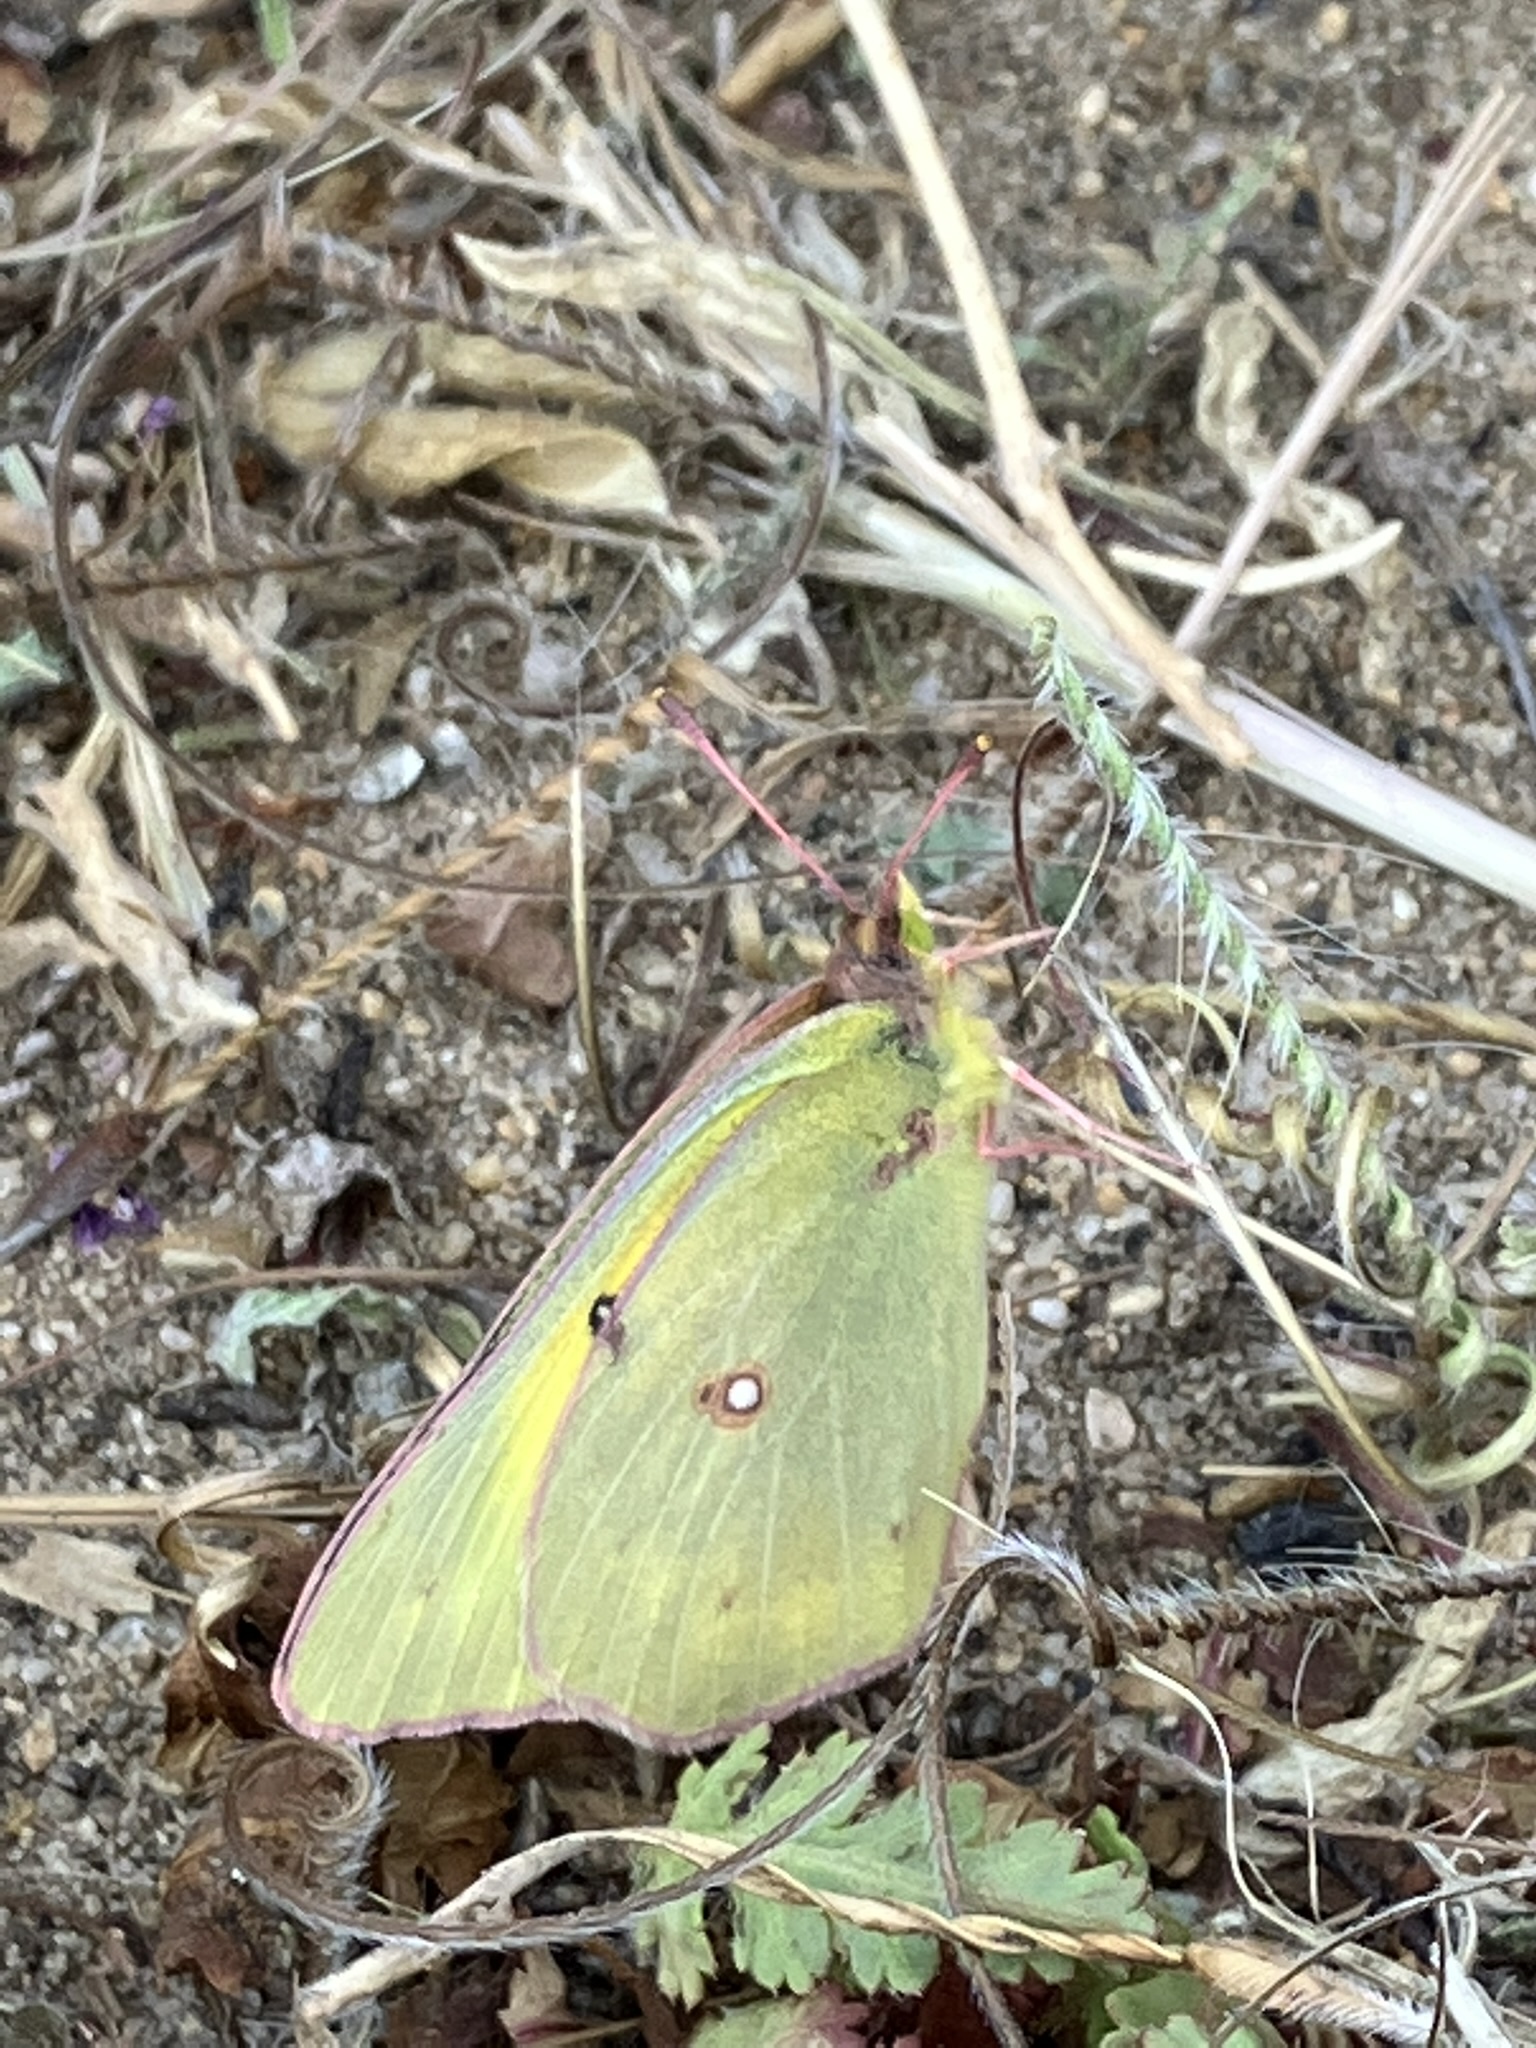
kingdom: Animalia
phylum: Arthropoda
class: Insecta
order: Lepidoptera
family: Pieridae
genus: Colias
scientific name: Colias eurytheme
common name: Alfalfa butterfly
